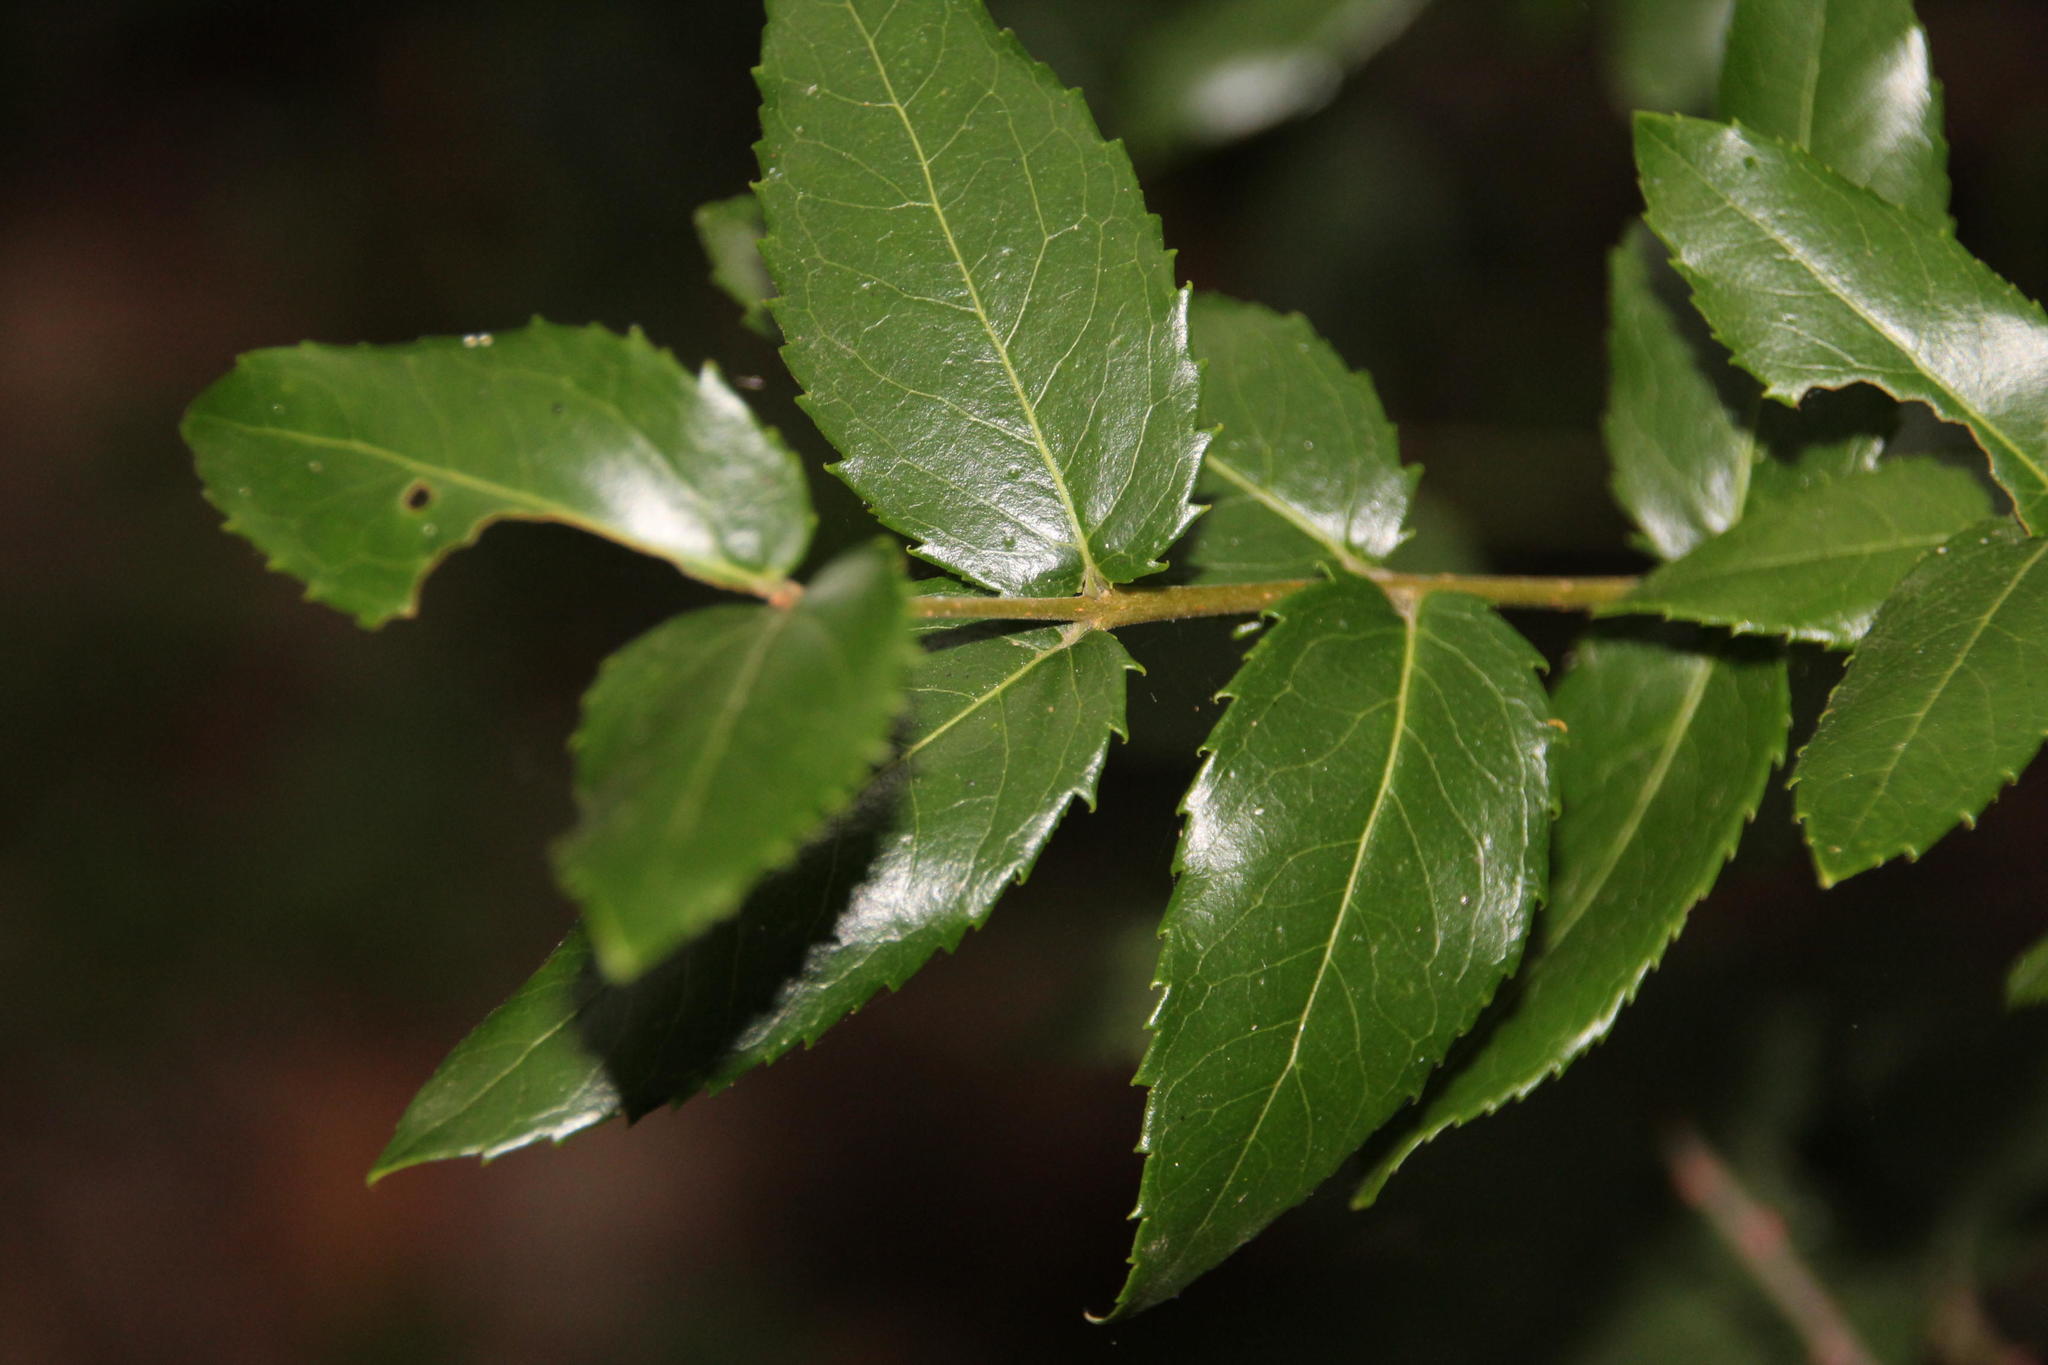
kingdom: Plantae
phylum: Tracheophyta
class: Magnoliopsida
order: Lamiales
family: Oleaceae
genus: Phillyrea
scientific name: Phillyrea latifolia
